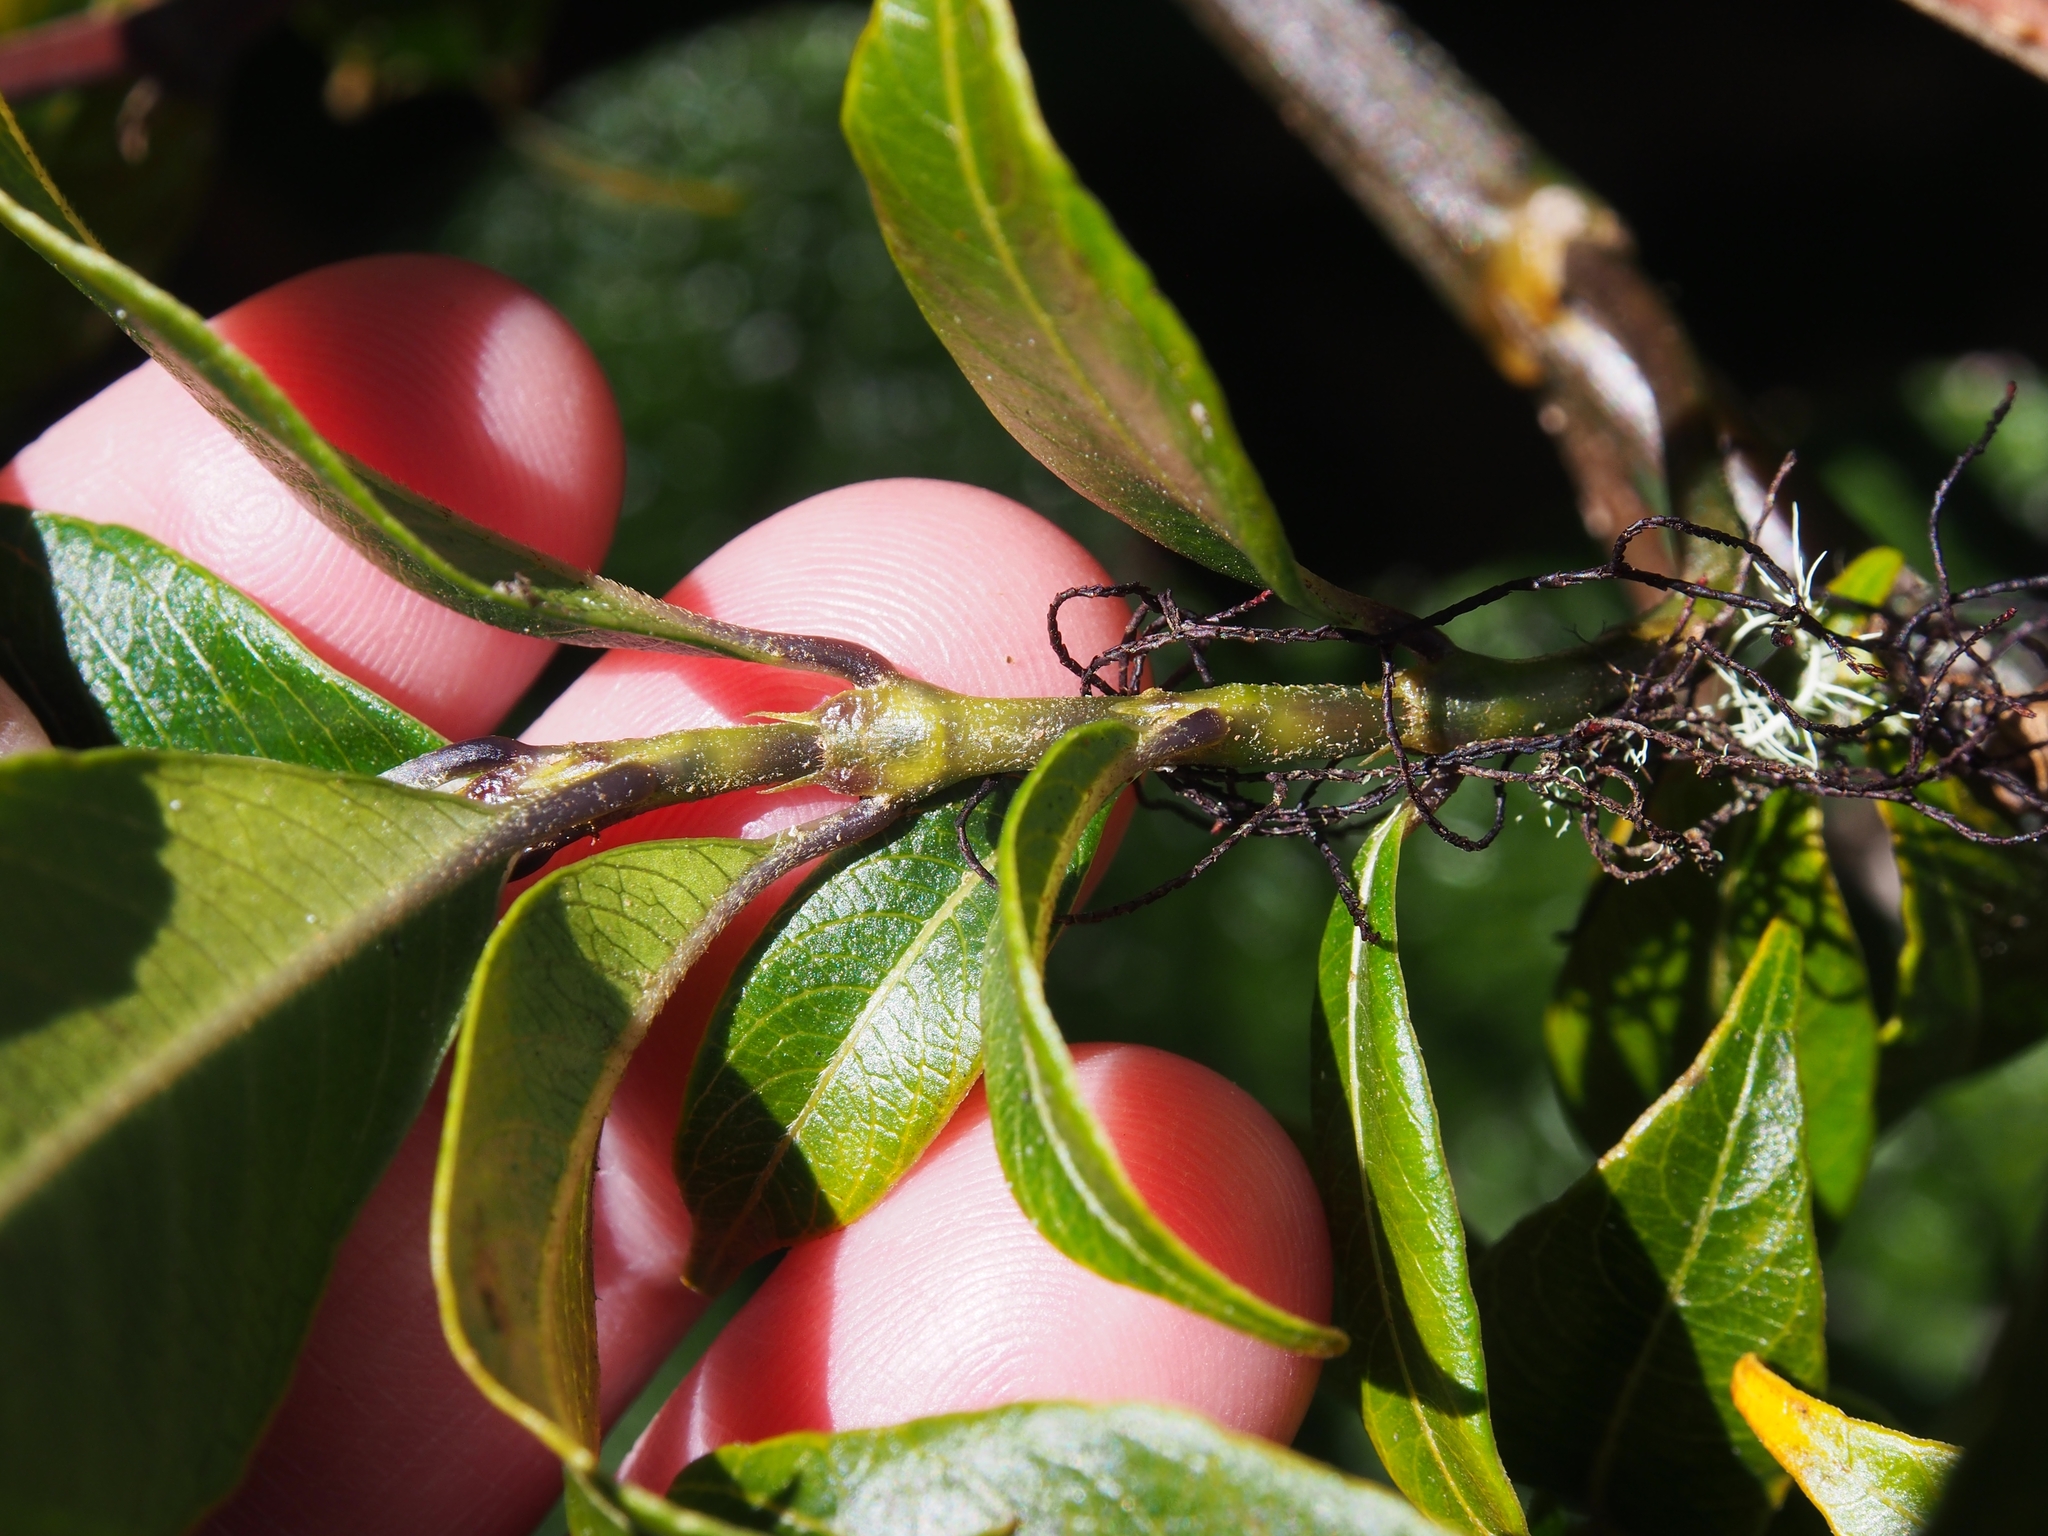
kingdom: Plantae
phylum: Tracheophyta
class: Magnoliopsida
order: Gentianales
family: Rubiaceae
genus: Palicourea
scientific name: Palicourea adusta
